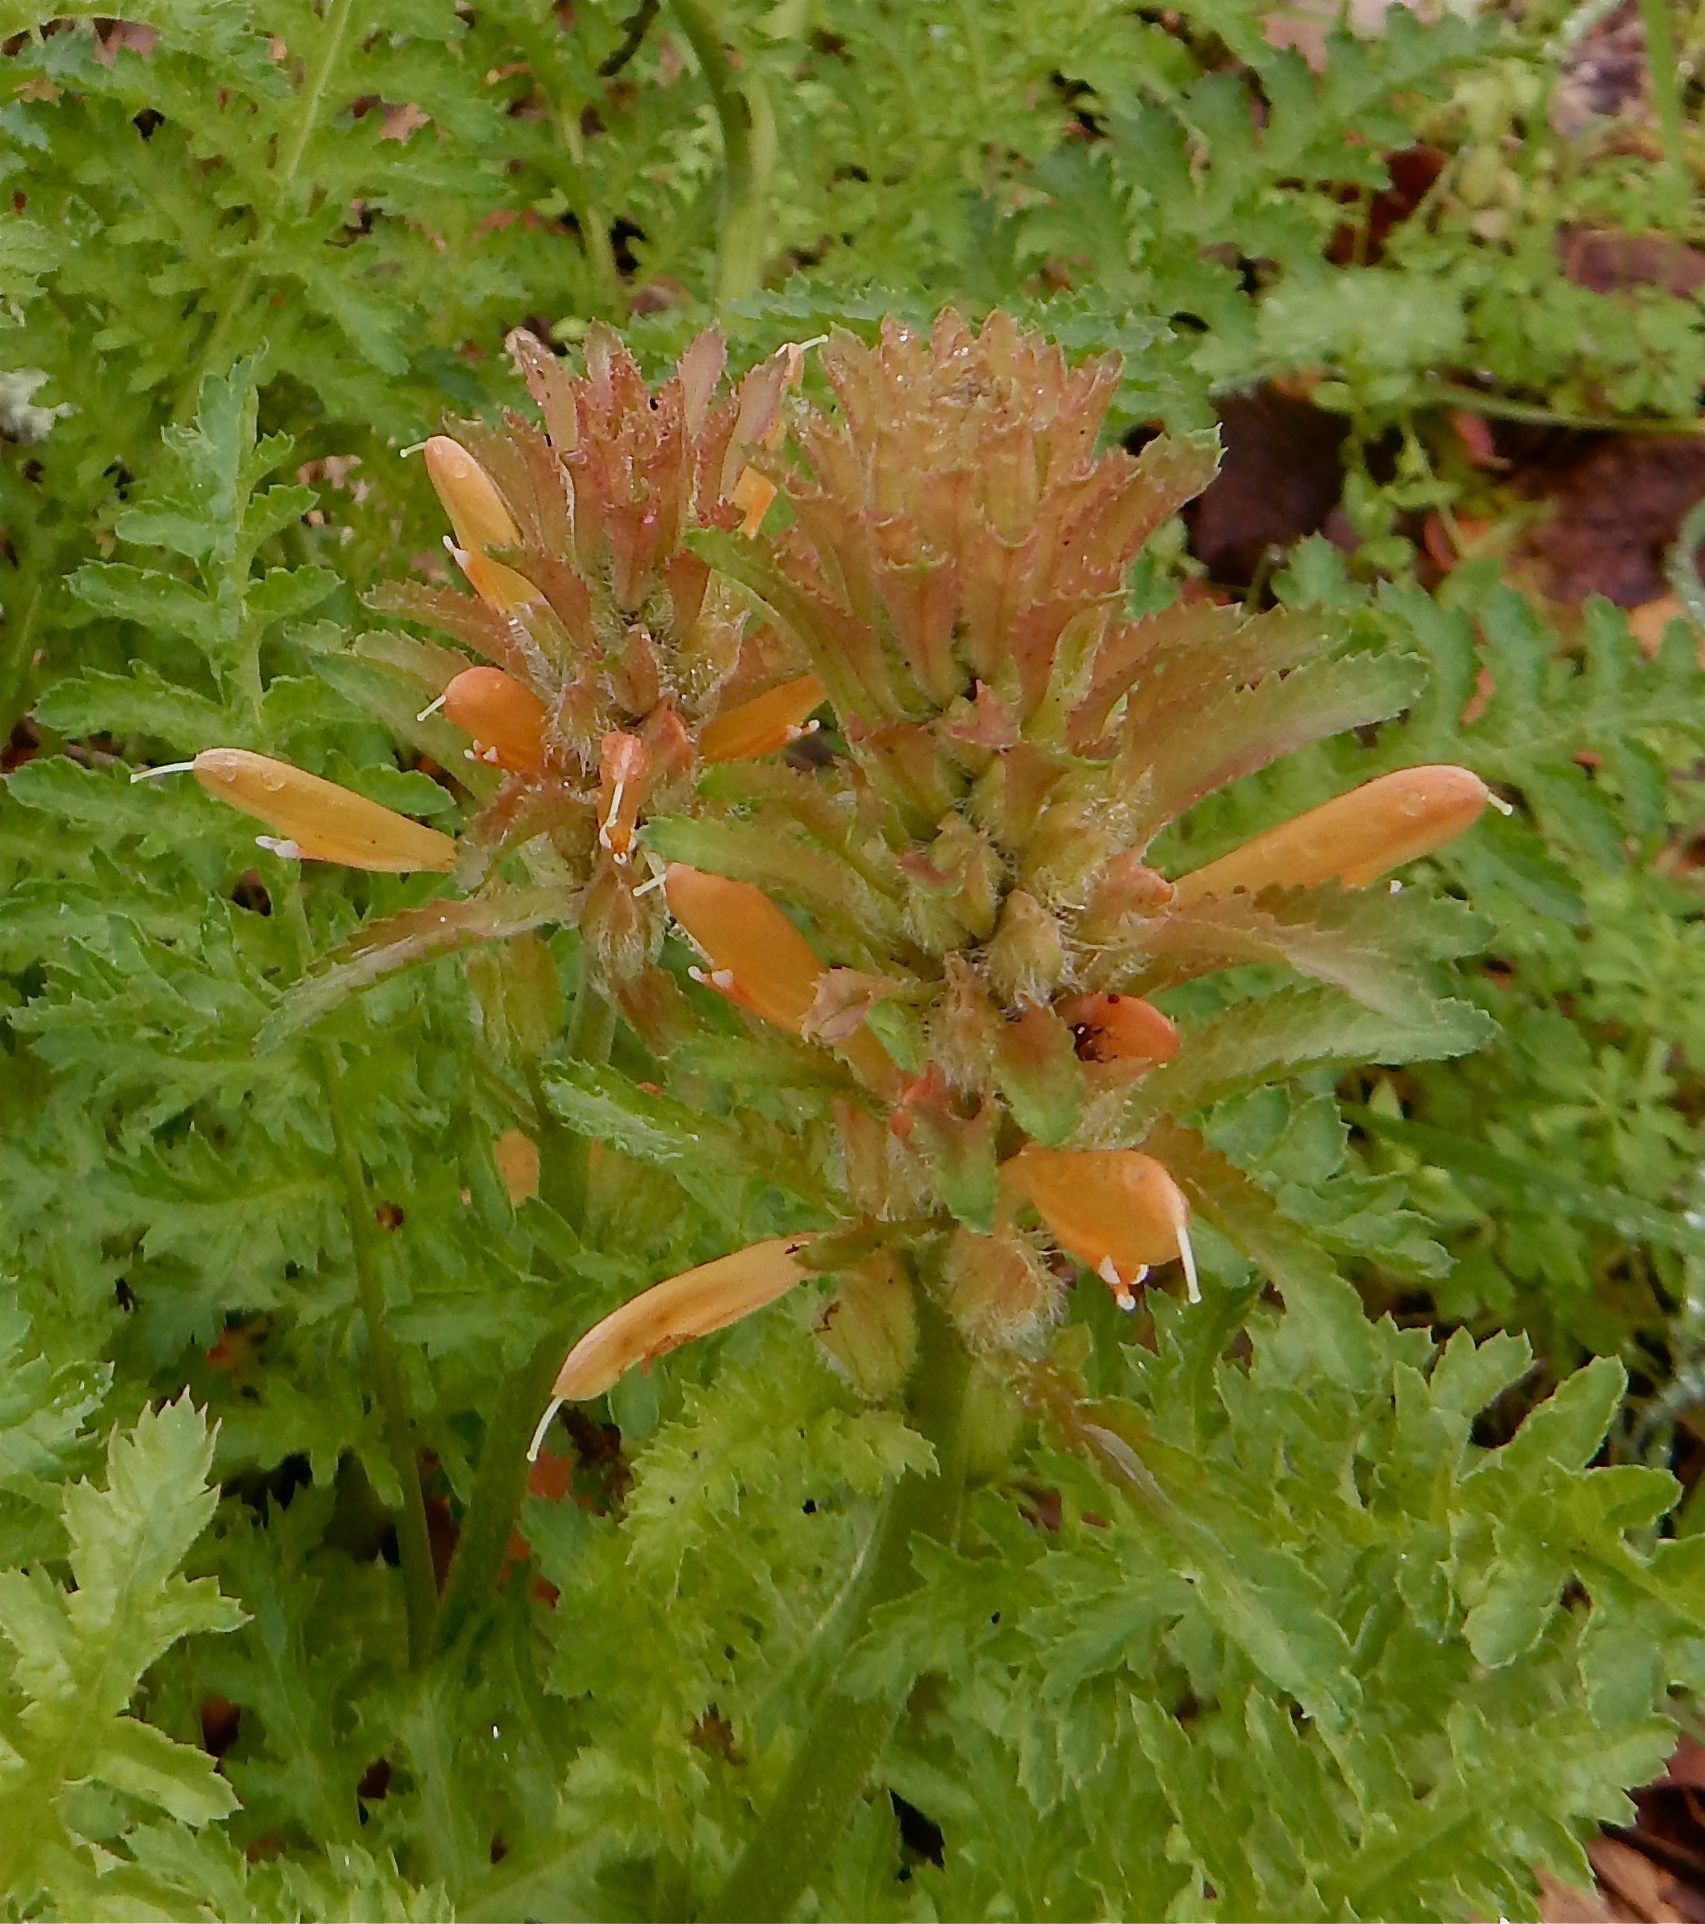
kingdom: Plantae
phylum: Tracheophyta
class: Magnoliopsida
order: Lamiales
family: Orobanchaceae
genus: Pedicularis
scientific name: Pedicularis densiflora
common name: Indian warrior
